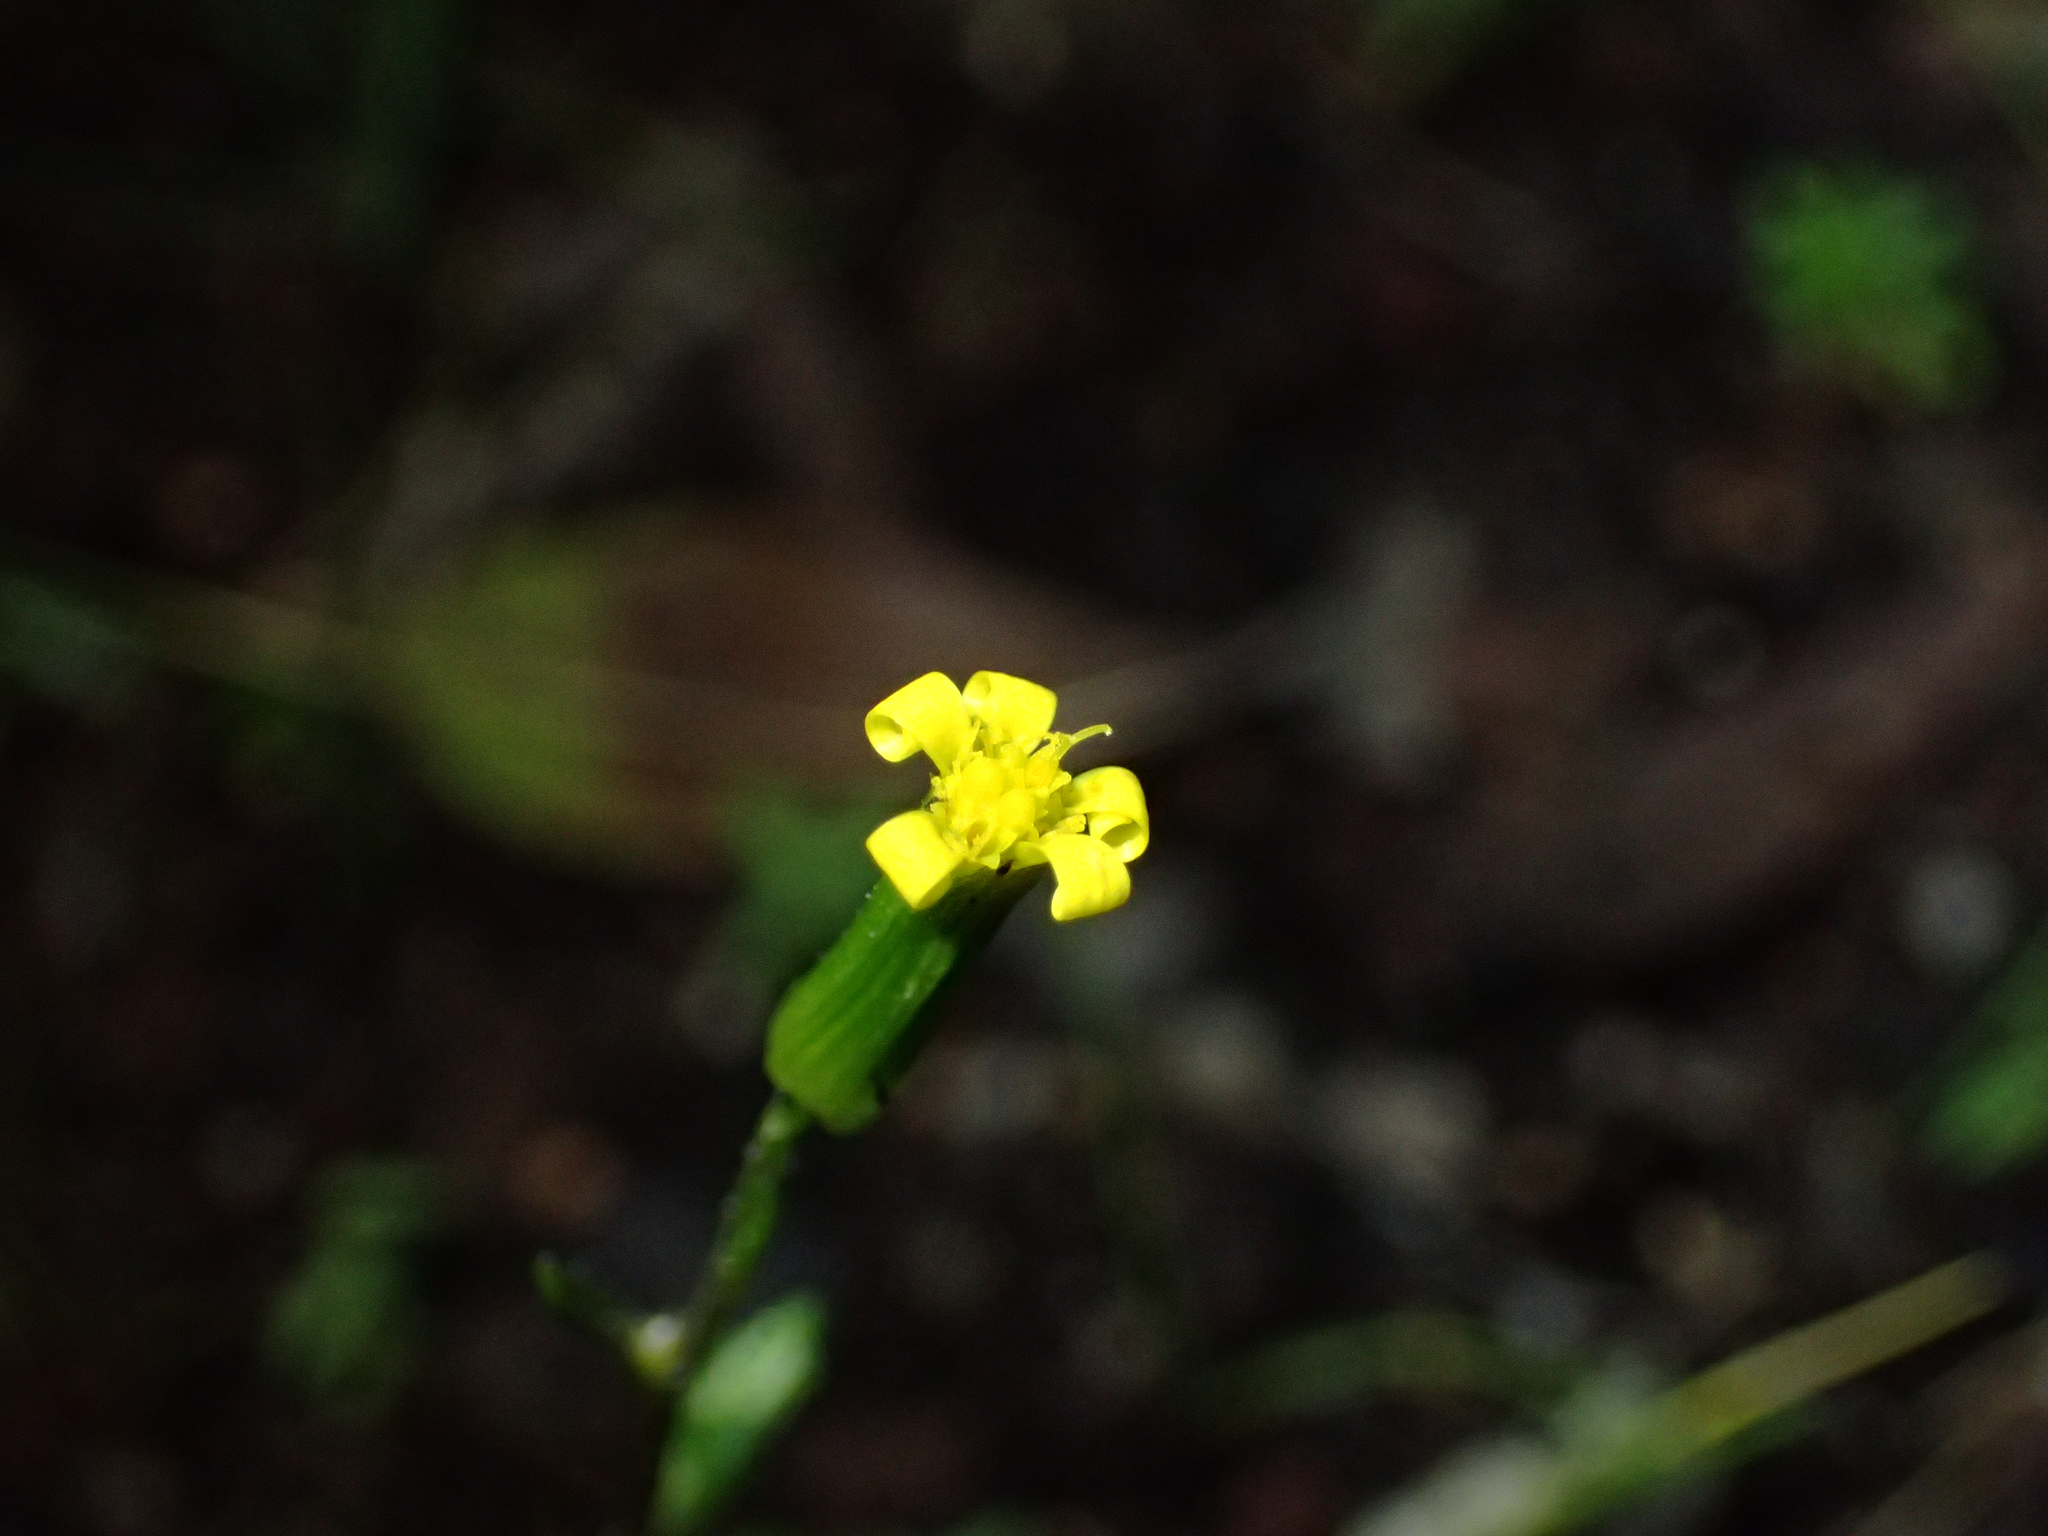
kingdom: Plantae
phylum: Tracheophyta
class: Magnoliopsida
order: Asterales
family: Asteraceae
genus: Senecio
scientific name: Senecio lividus
